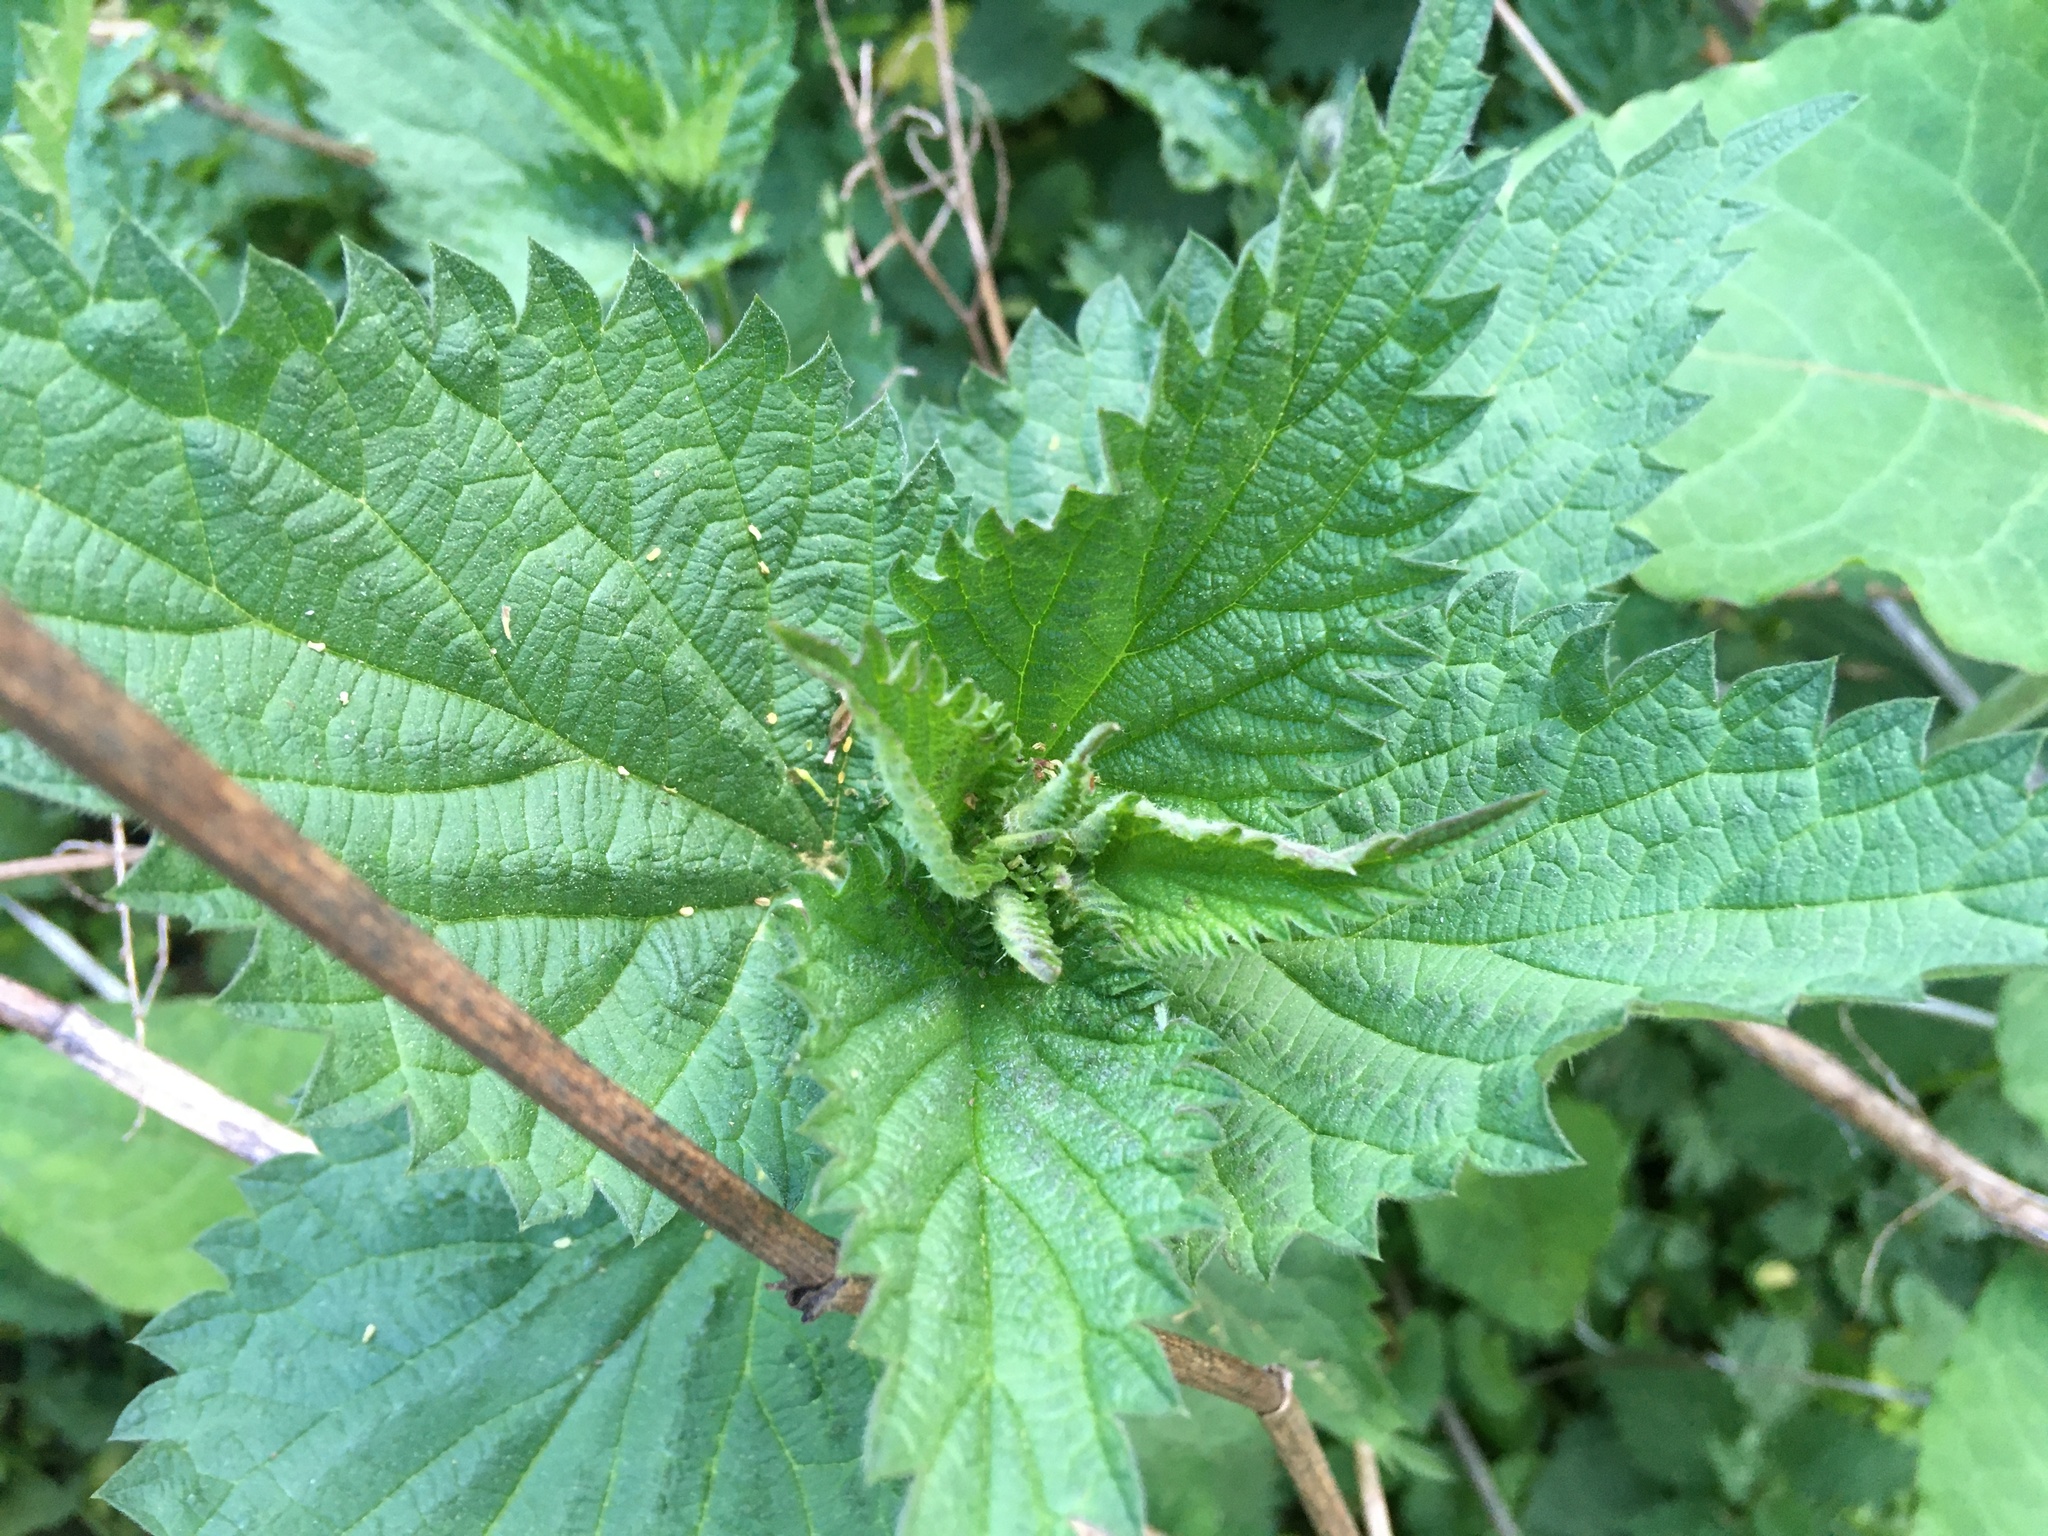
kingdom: Plantae
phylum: Tracheophyta
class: Magnoliopsida
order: Rosales
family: Urticaceae
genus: Urtica
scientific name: Urtica dioica
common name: Common nettle
